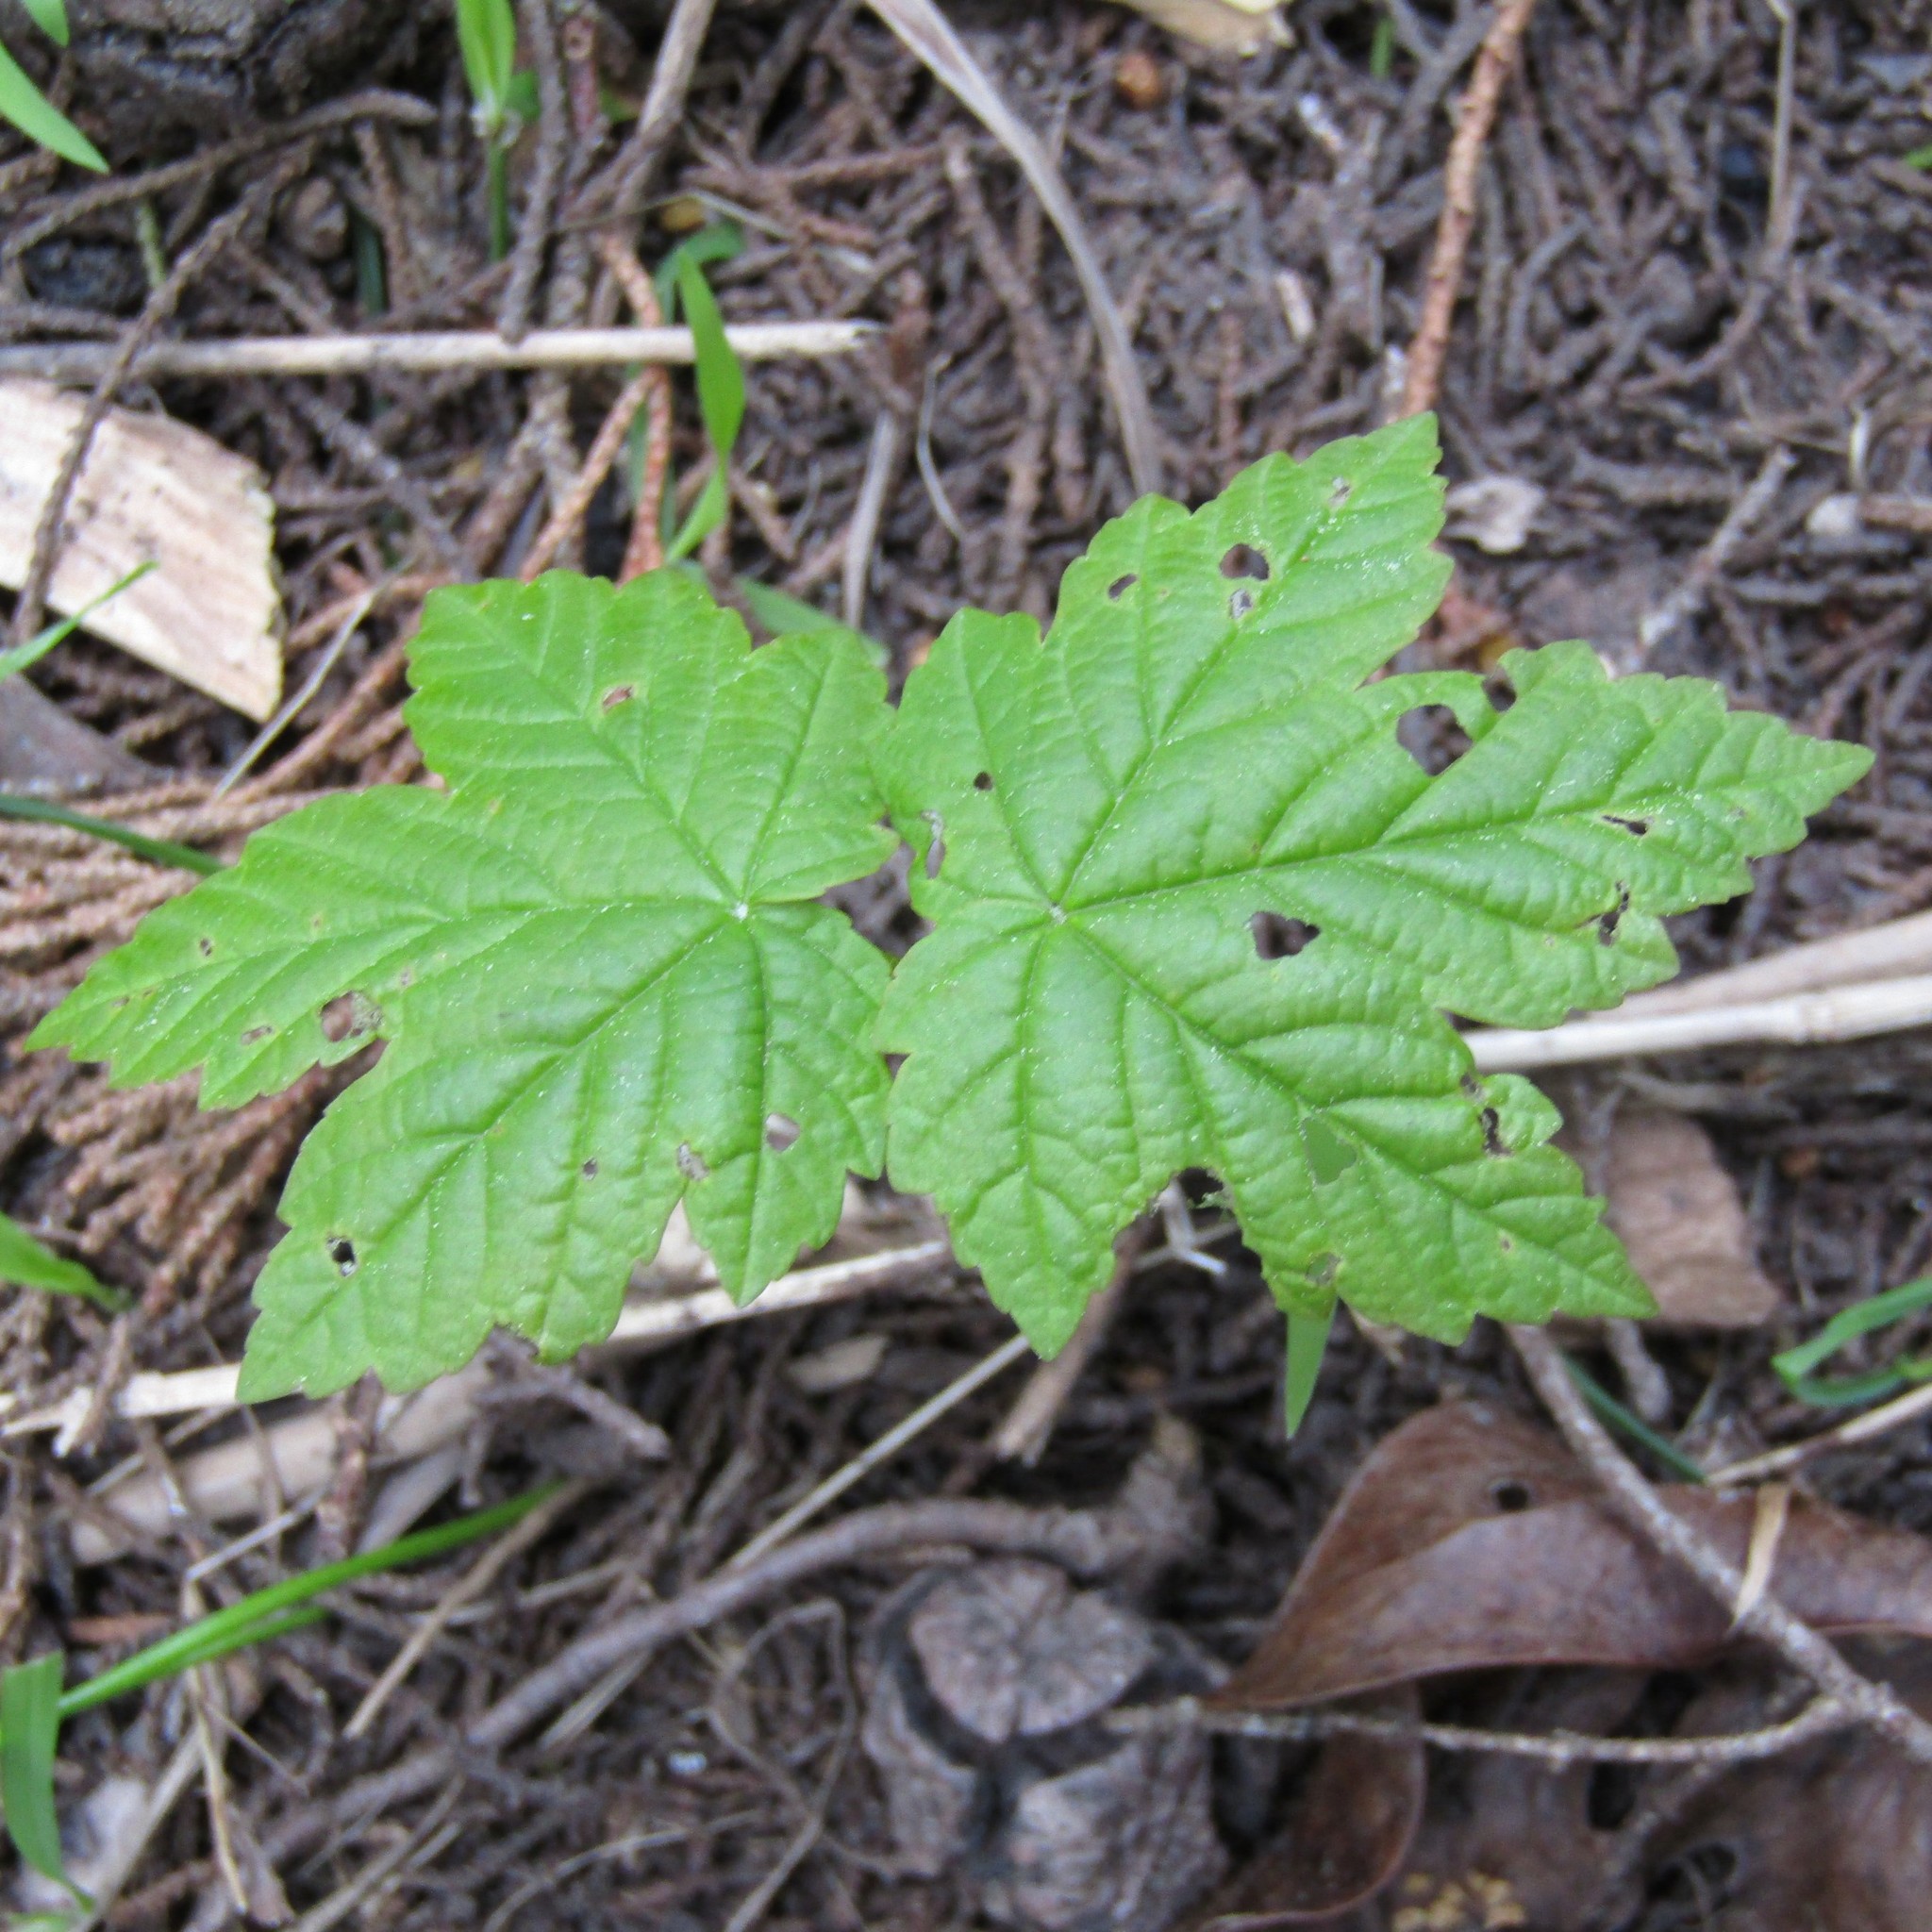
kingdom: Plantae
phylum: Tracheophyta
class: Magnoliopsida
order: Sapindales
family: Sapindaceae
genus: Acer
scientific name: Acer pseudoplatanus
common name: Sycamore
